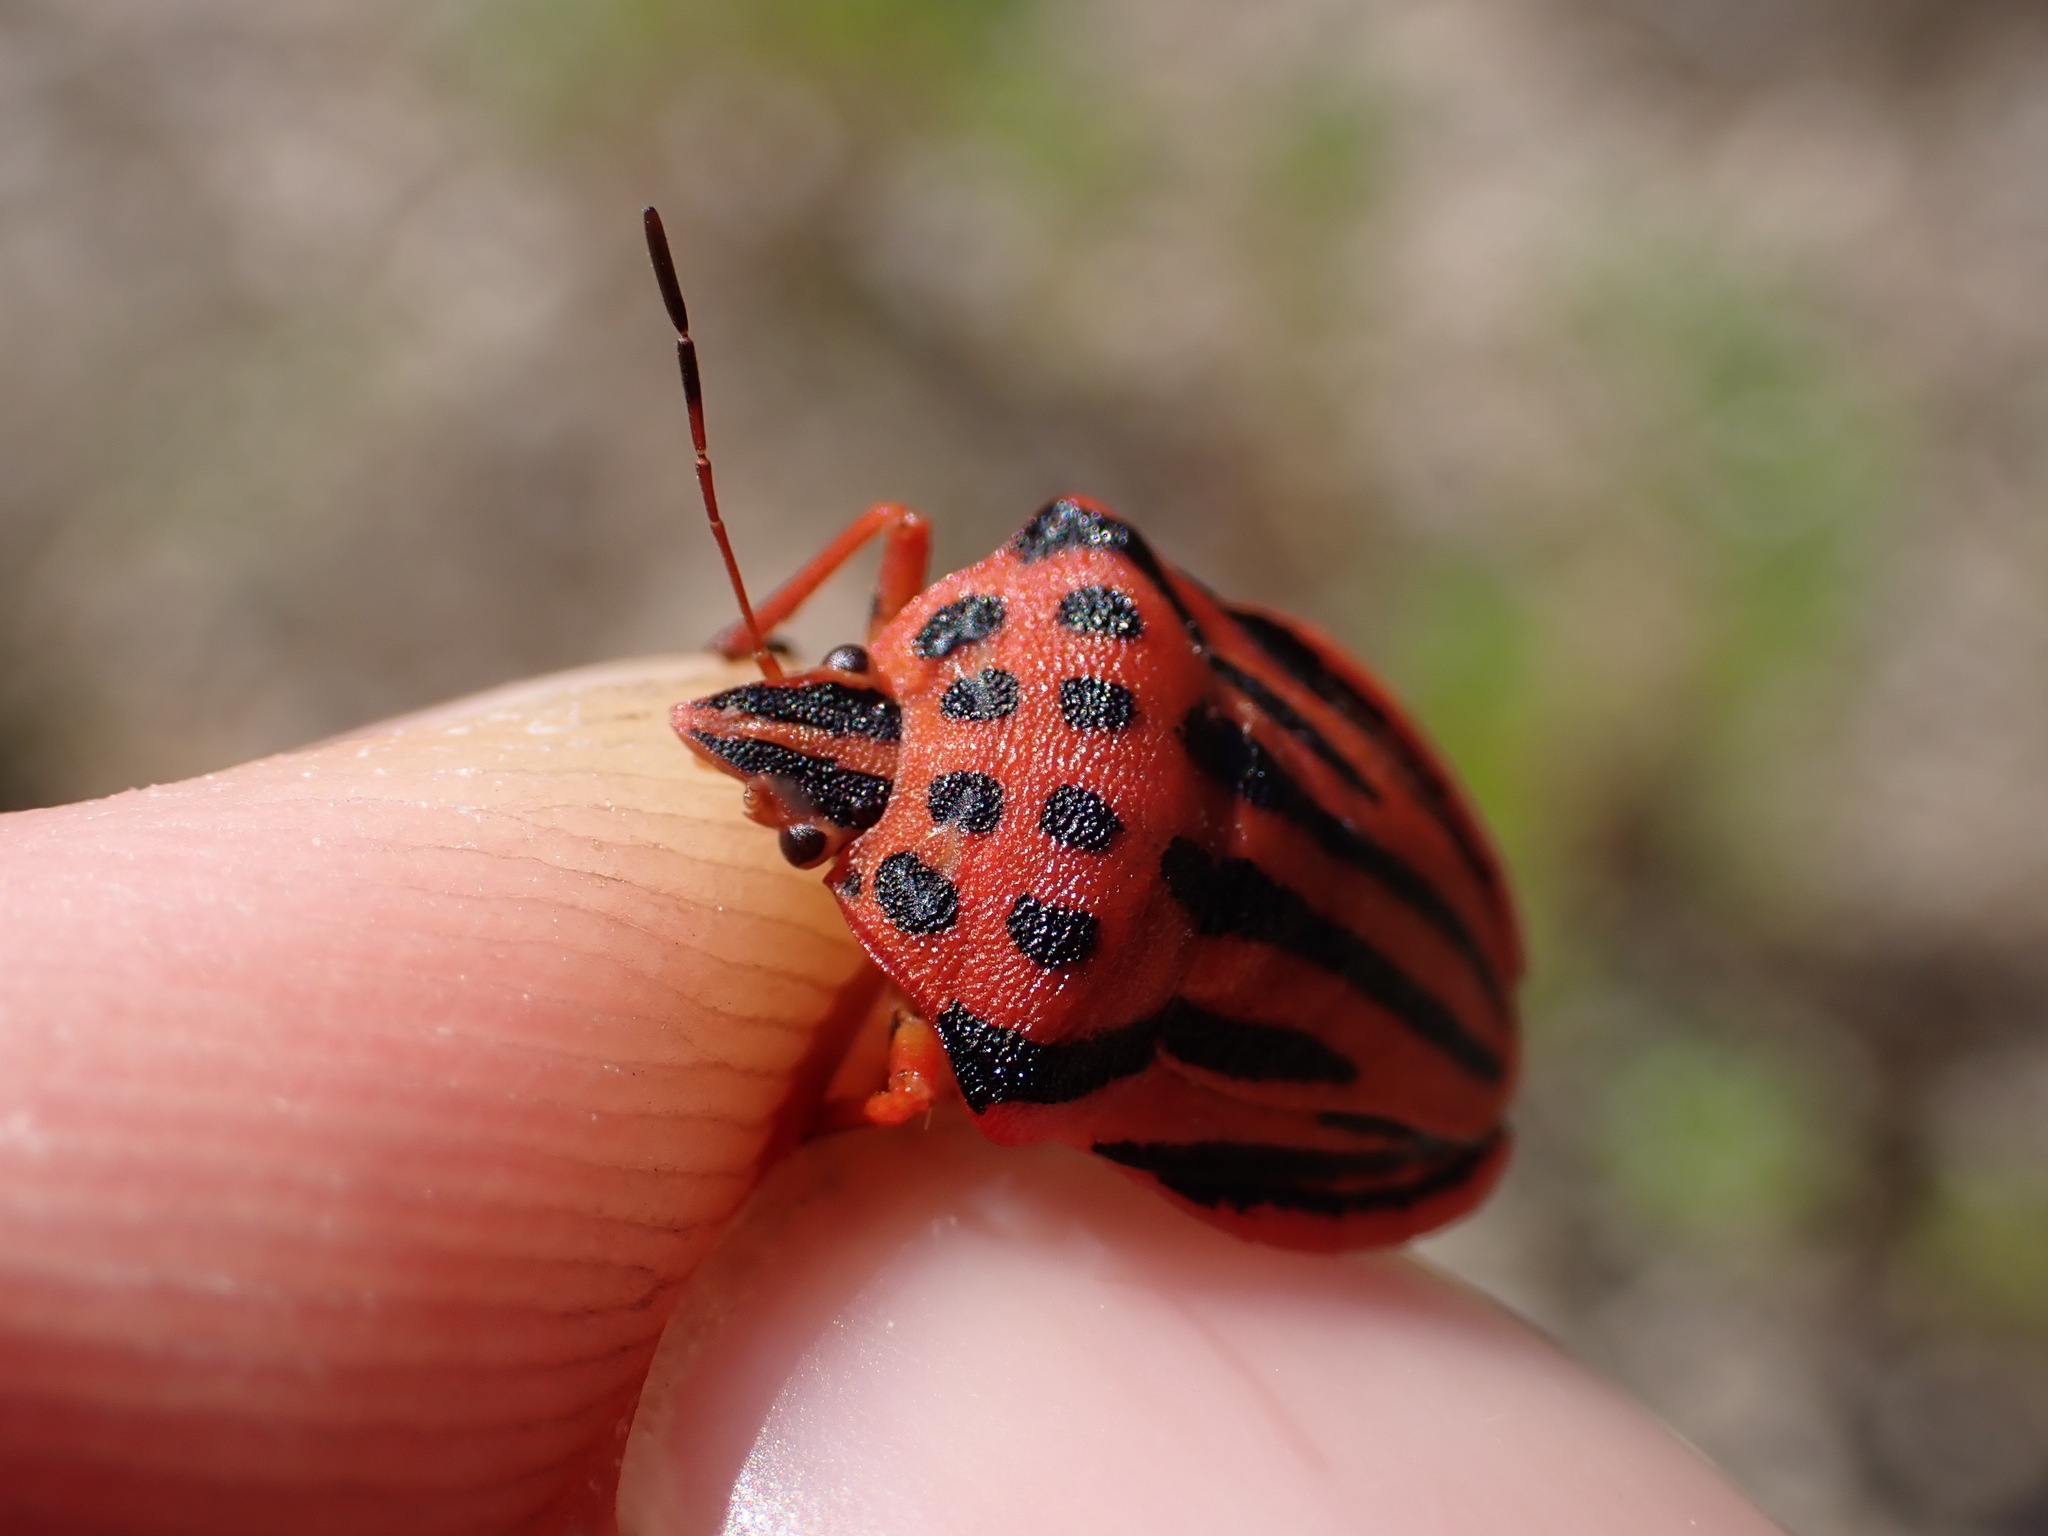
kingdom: Animalia
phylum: Arthropoda
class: Insecta
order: Hemiptera
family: Pentatomidae
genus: Graphosoma
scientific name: Graphosoma semipunctatum
